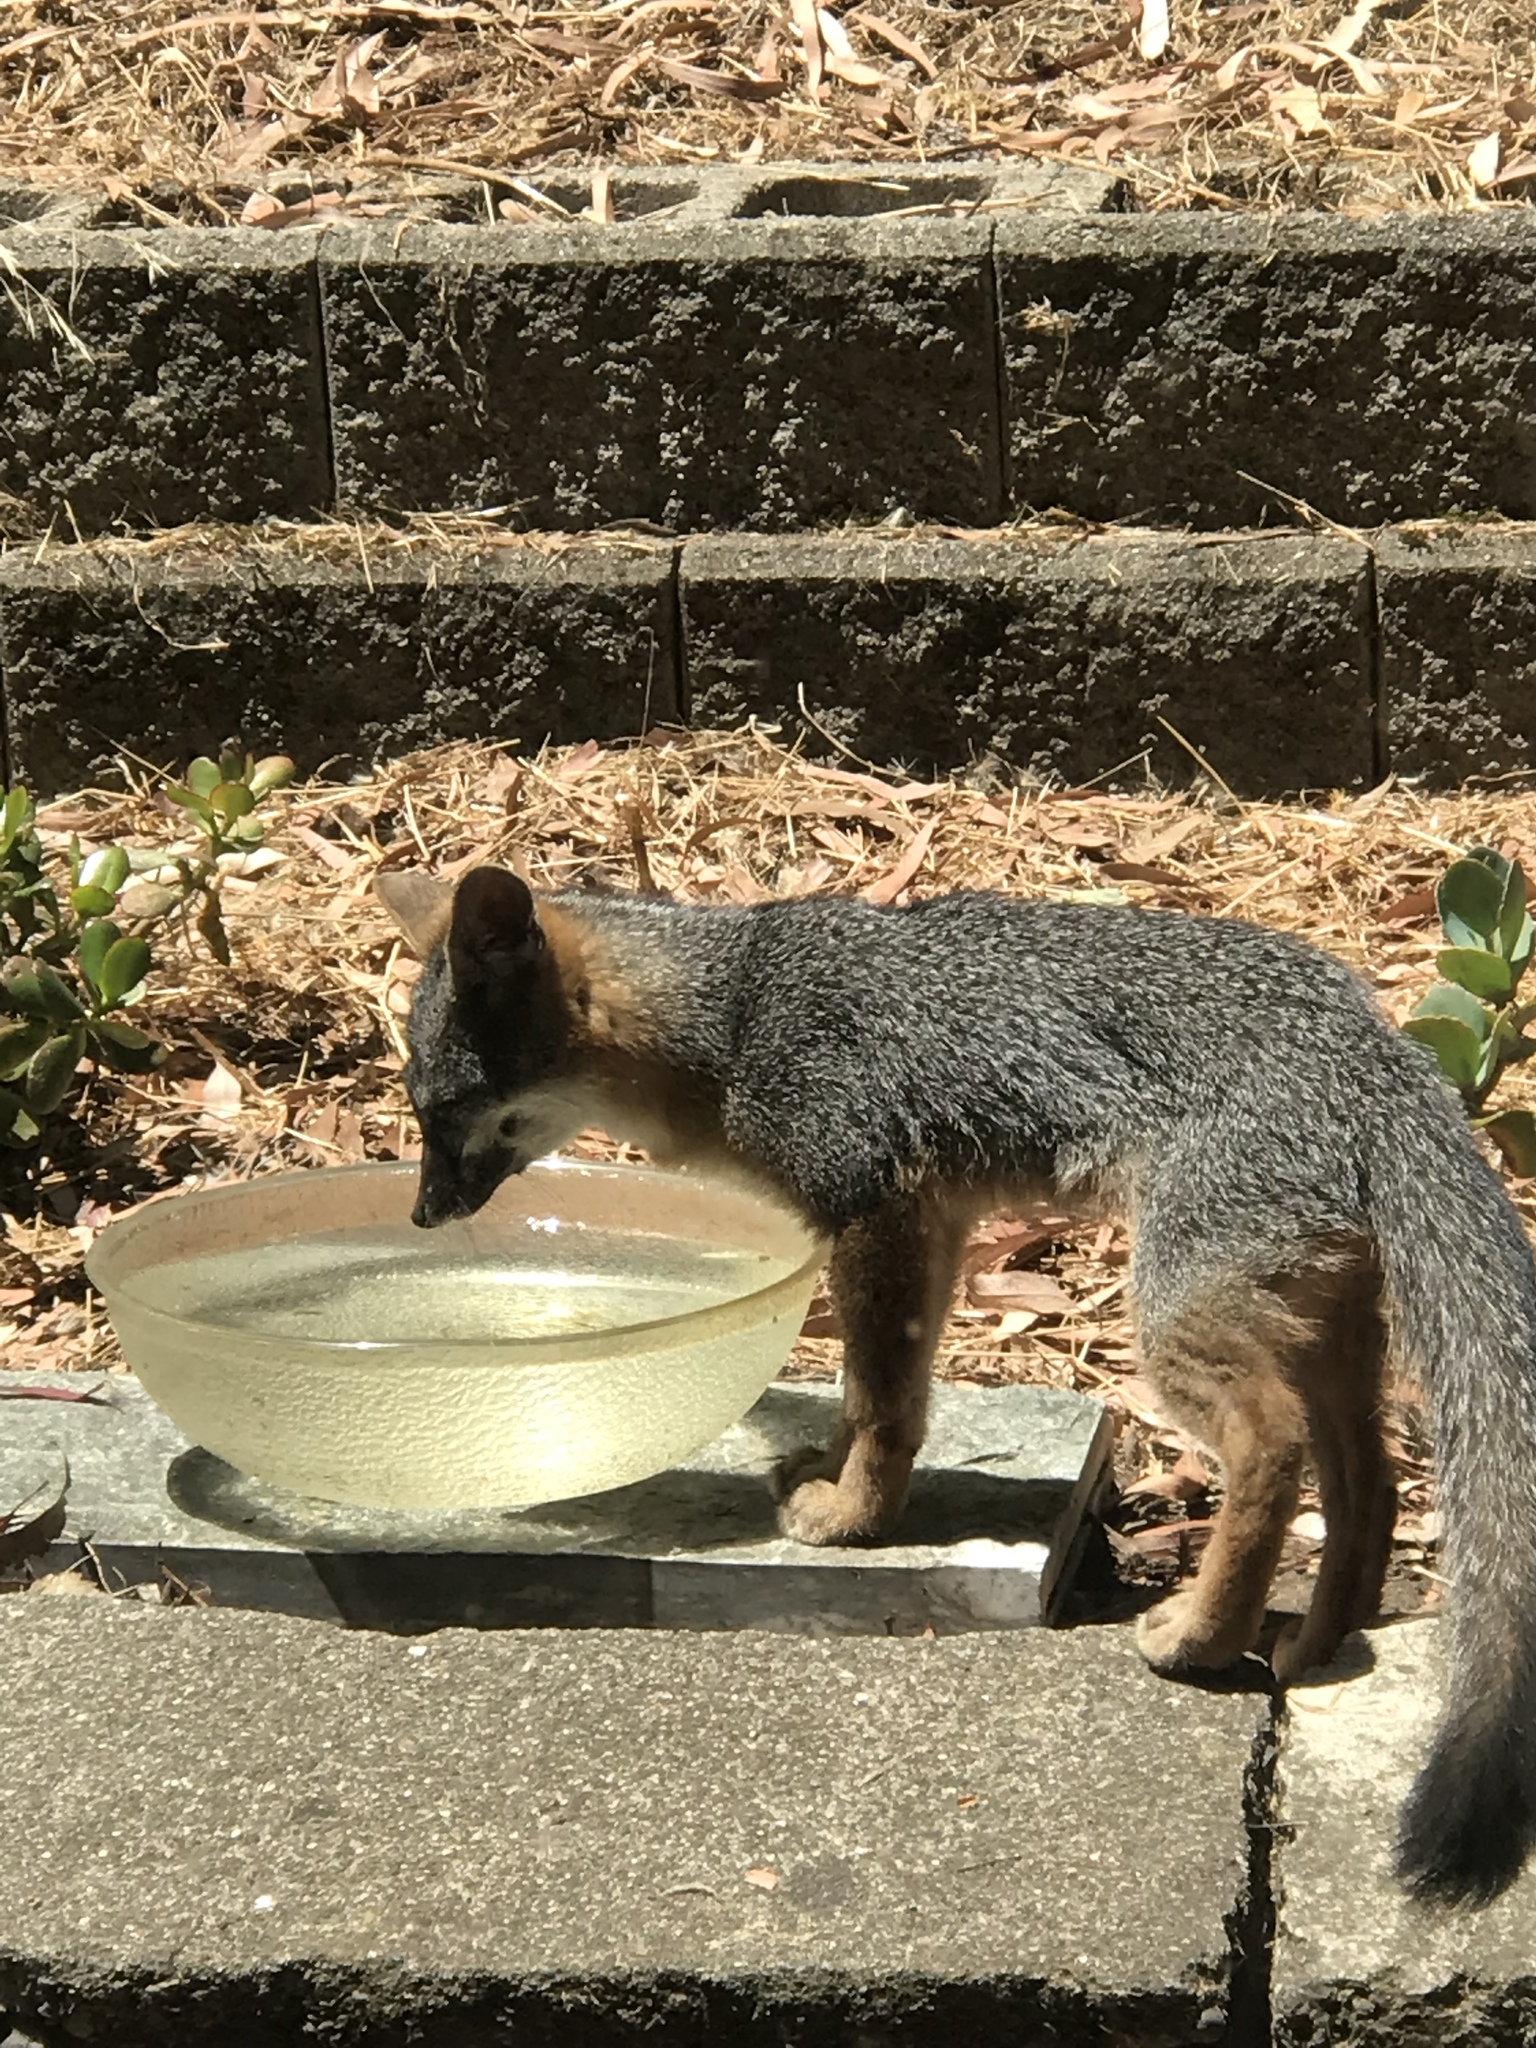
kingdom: Animalia
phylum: Chordata
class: Mammalia
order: Carnivora
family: Canidae
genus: Urocyon
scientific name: Urocyon cinereoargenteus
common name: Gray fox
